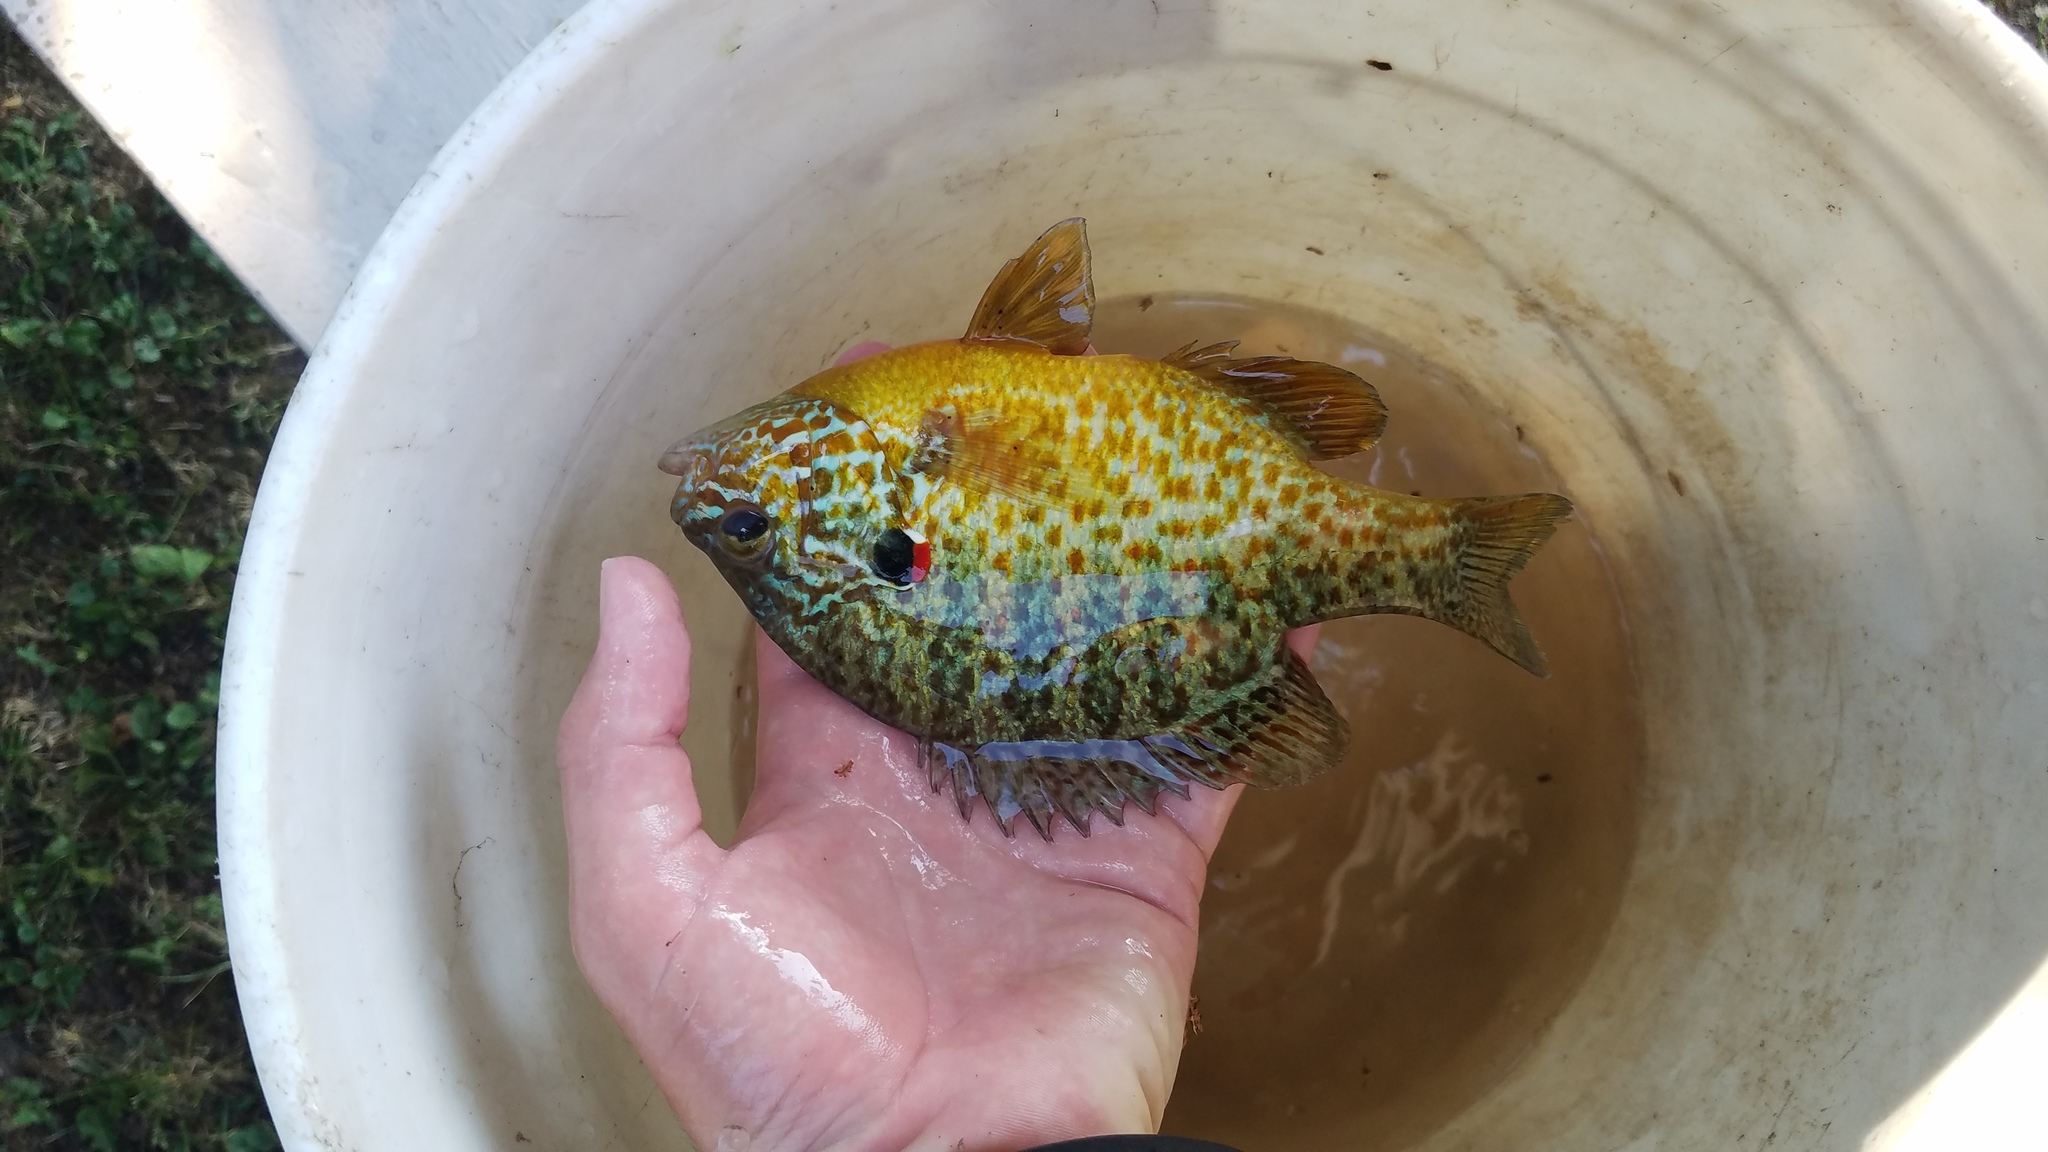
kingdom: Animalia
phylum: Chordata
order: Perciformes
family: Centrarchidae
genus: Lepomis
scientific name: Lepomis gibbosus
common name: Pumpkinseed
